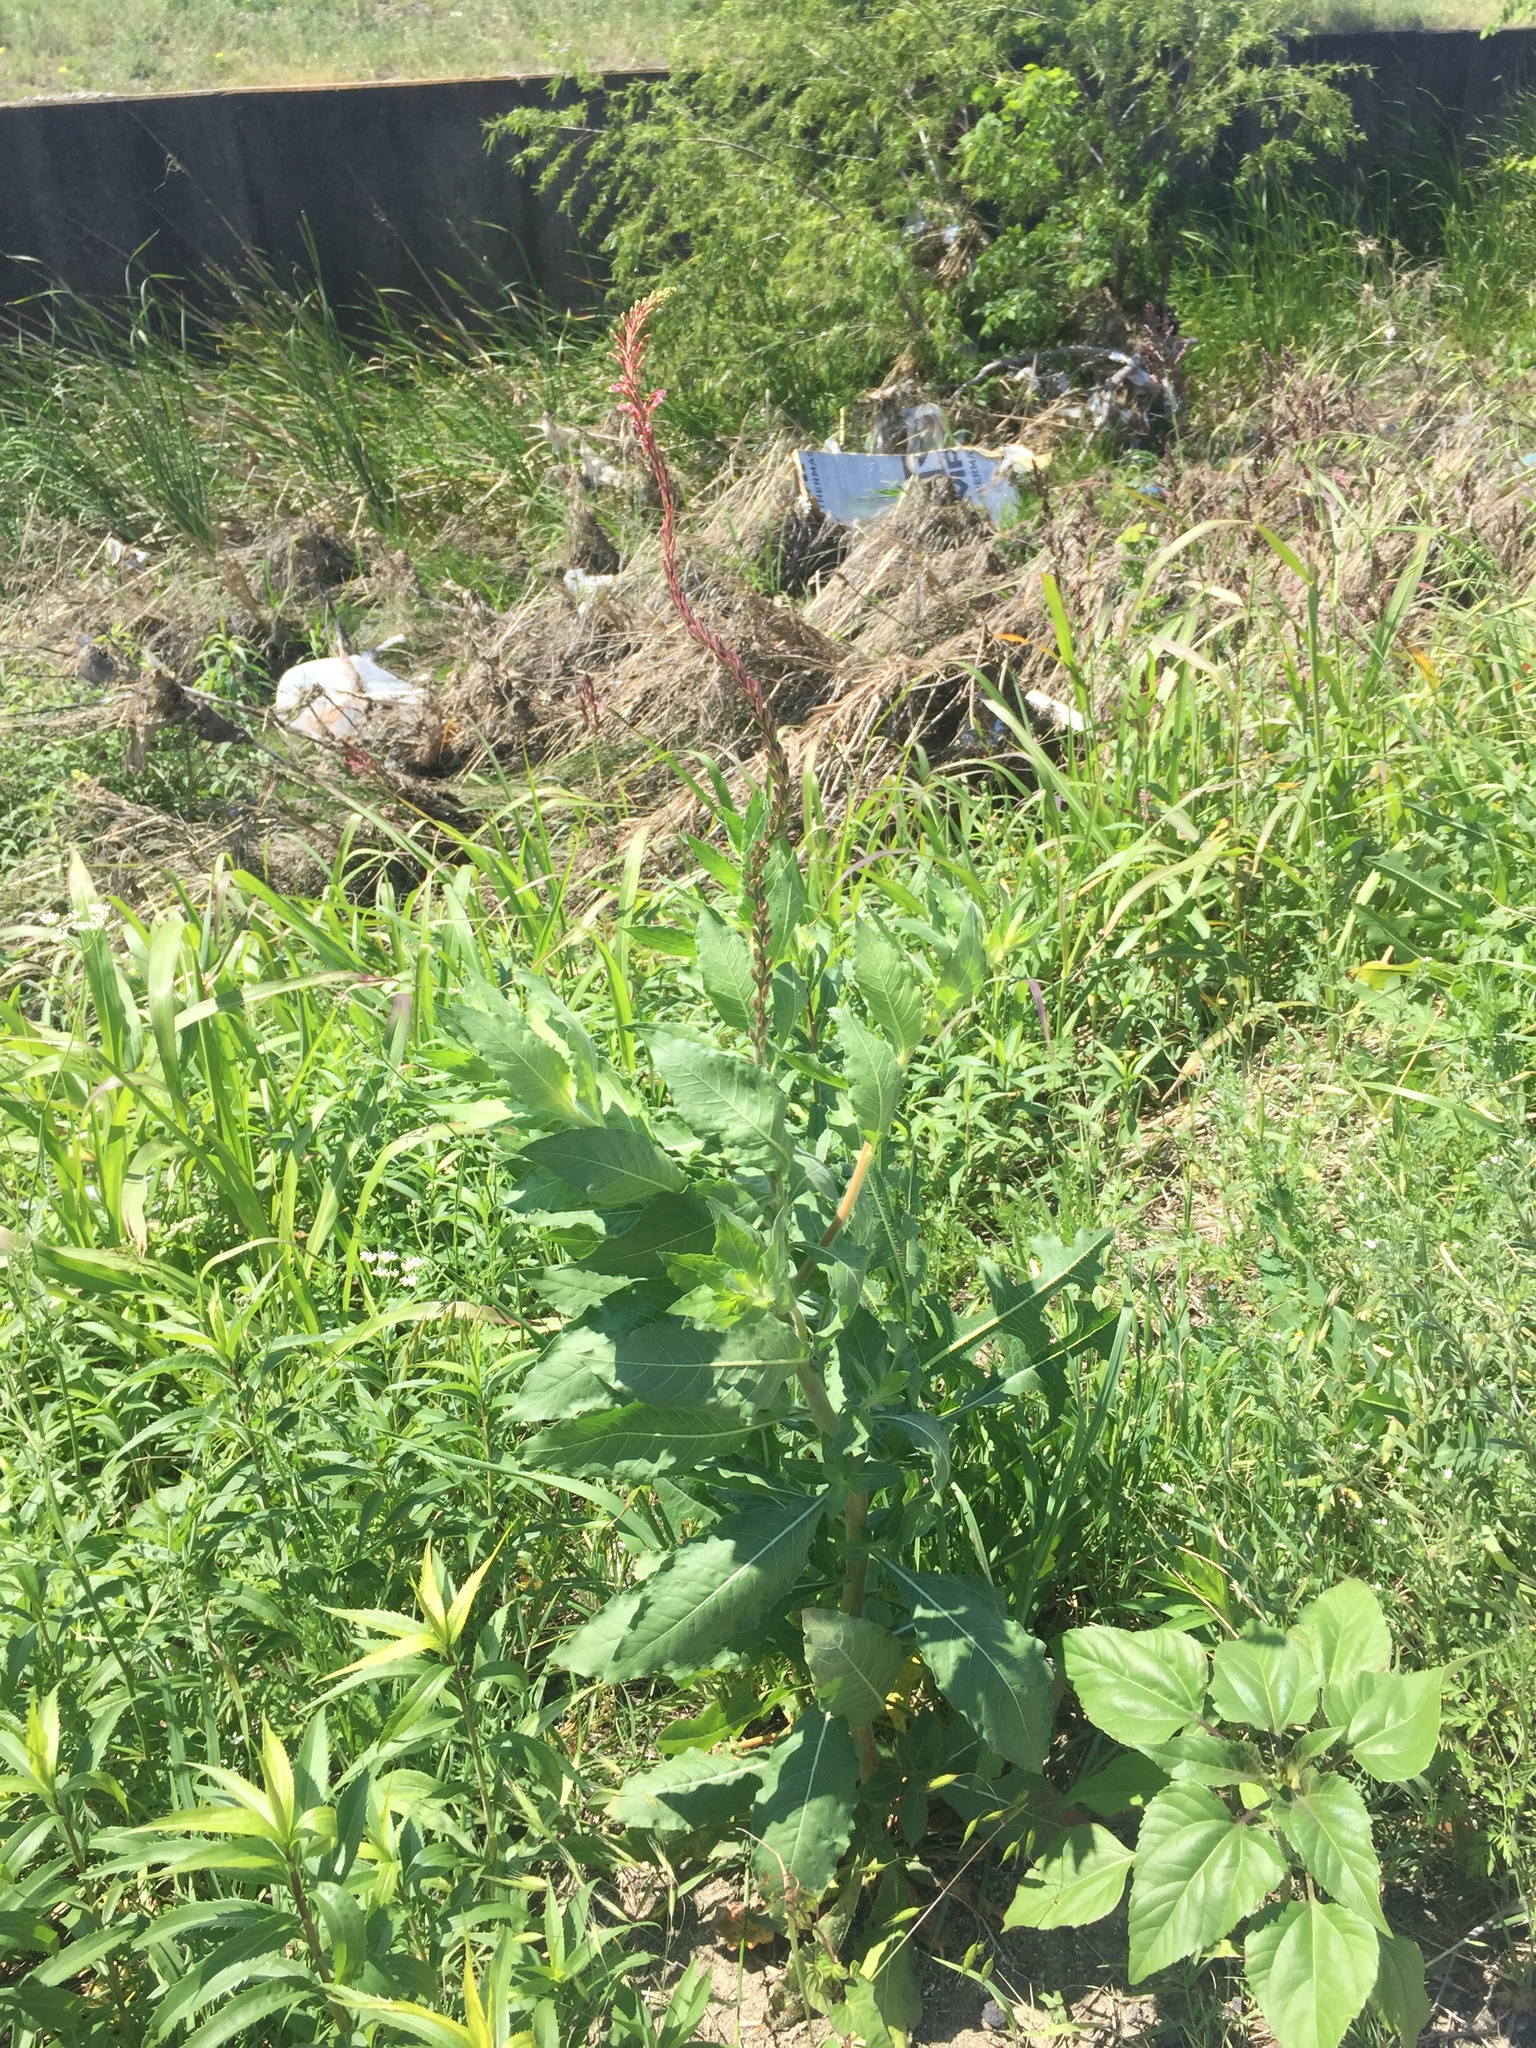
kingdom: Plantae
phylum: Tracheophyta
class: Magnoliopsida
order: Myrtales
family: Onagraceae
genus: Oenothera
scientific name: Oenothera curtiflora
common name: Velvetweed
